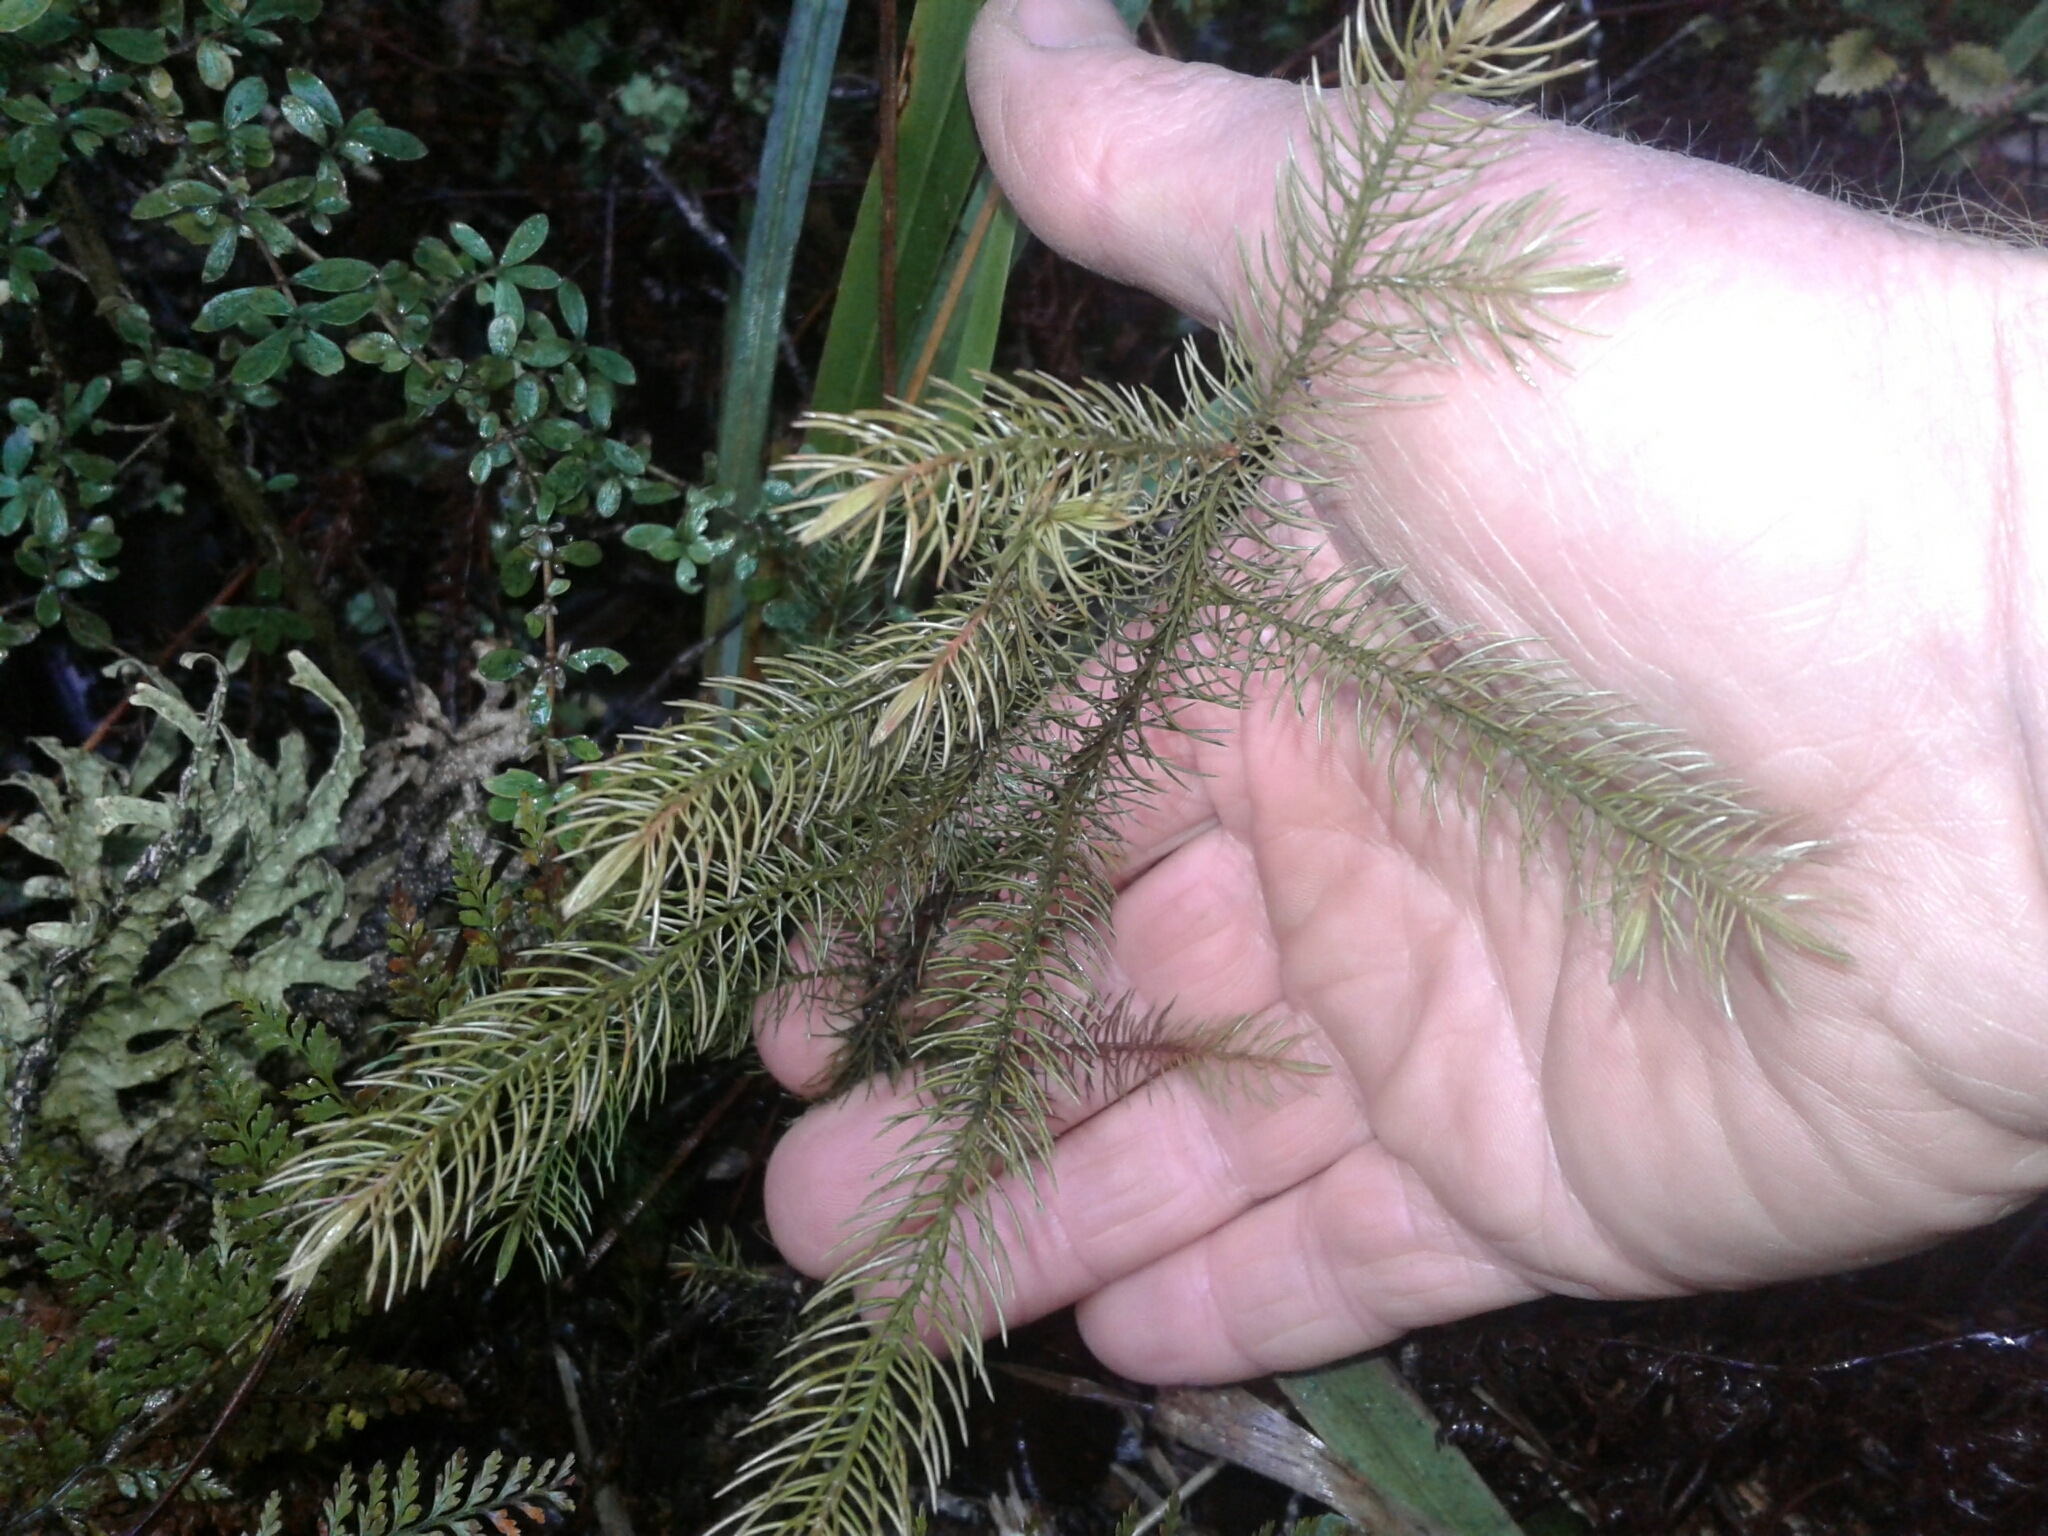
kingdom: Plantae
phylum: Tracheophyta
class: Pinopsida
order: Pinales
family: Podocarpaceae
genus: Dacrydium
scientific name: Dacrydium cupressinum
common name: Red pine
